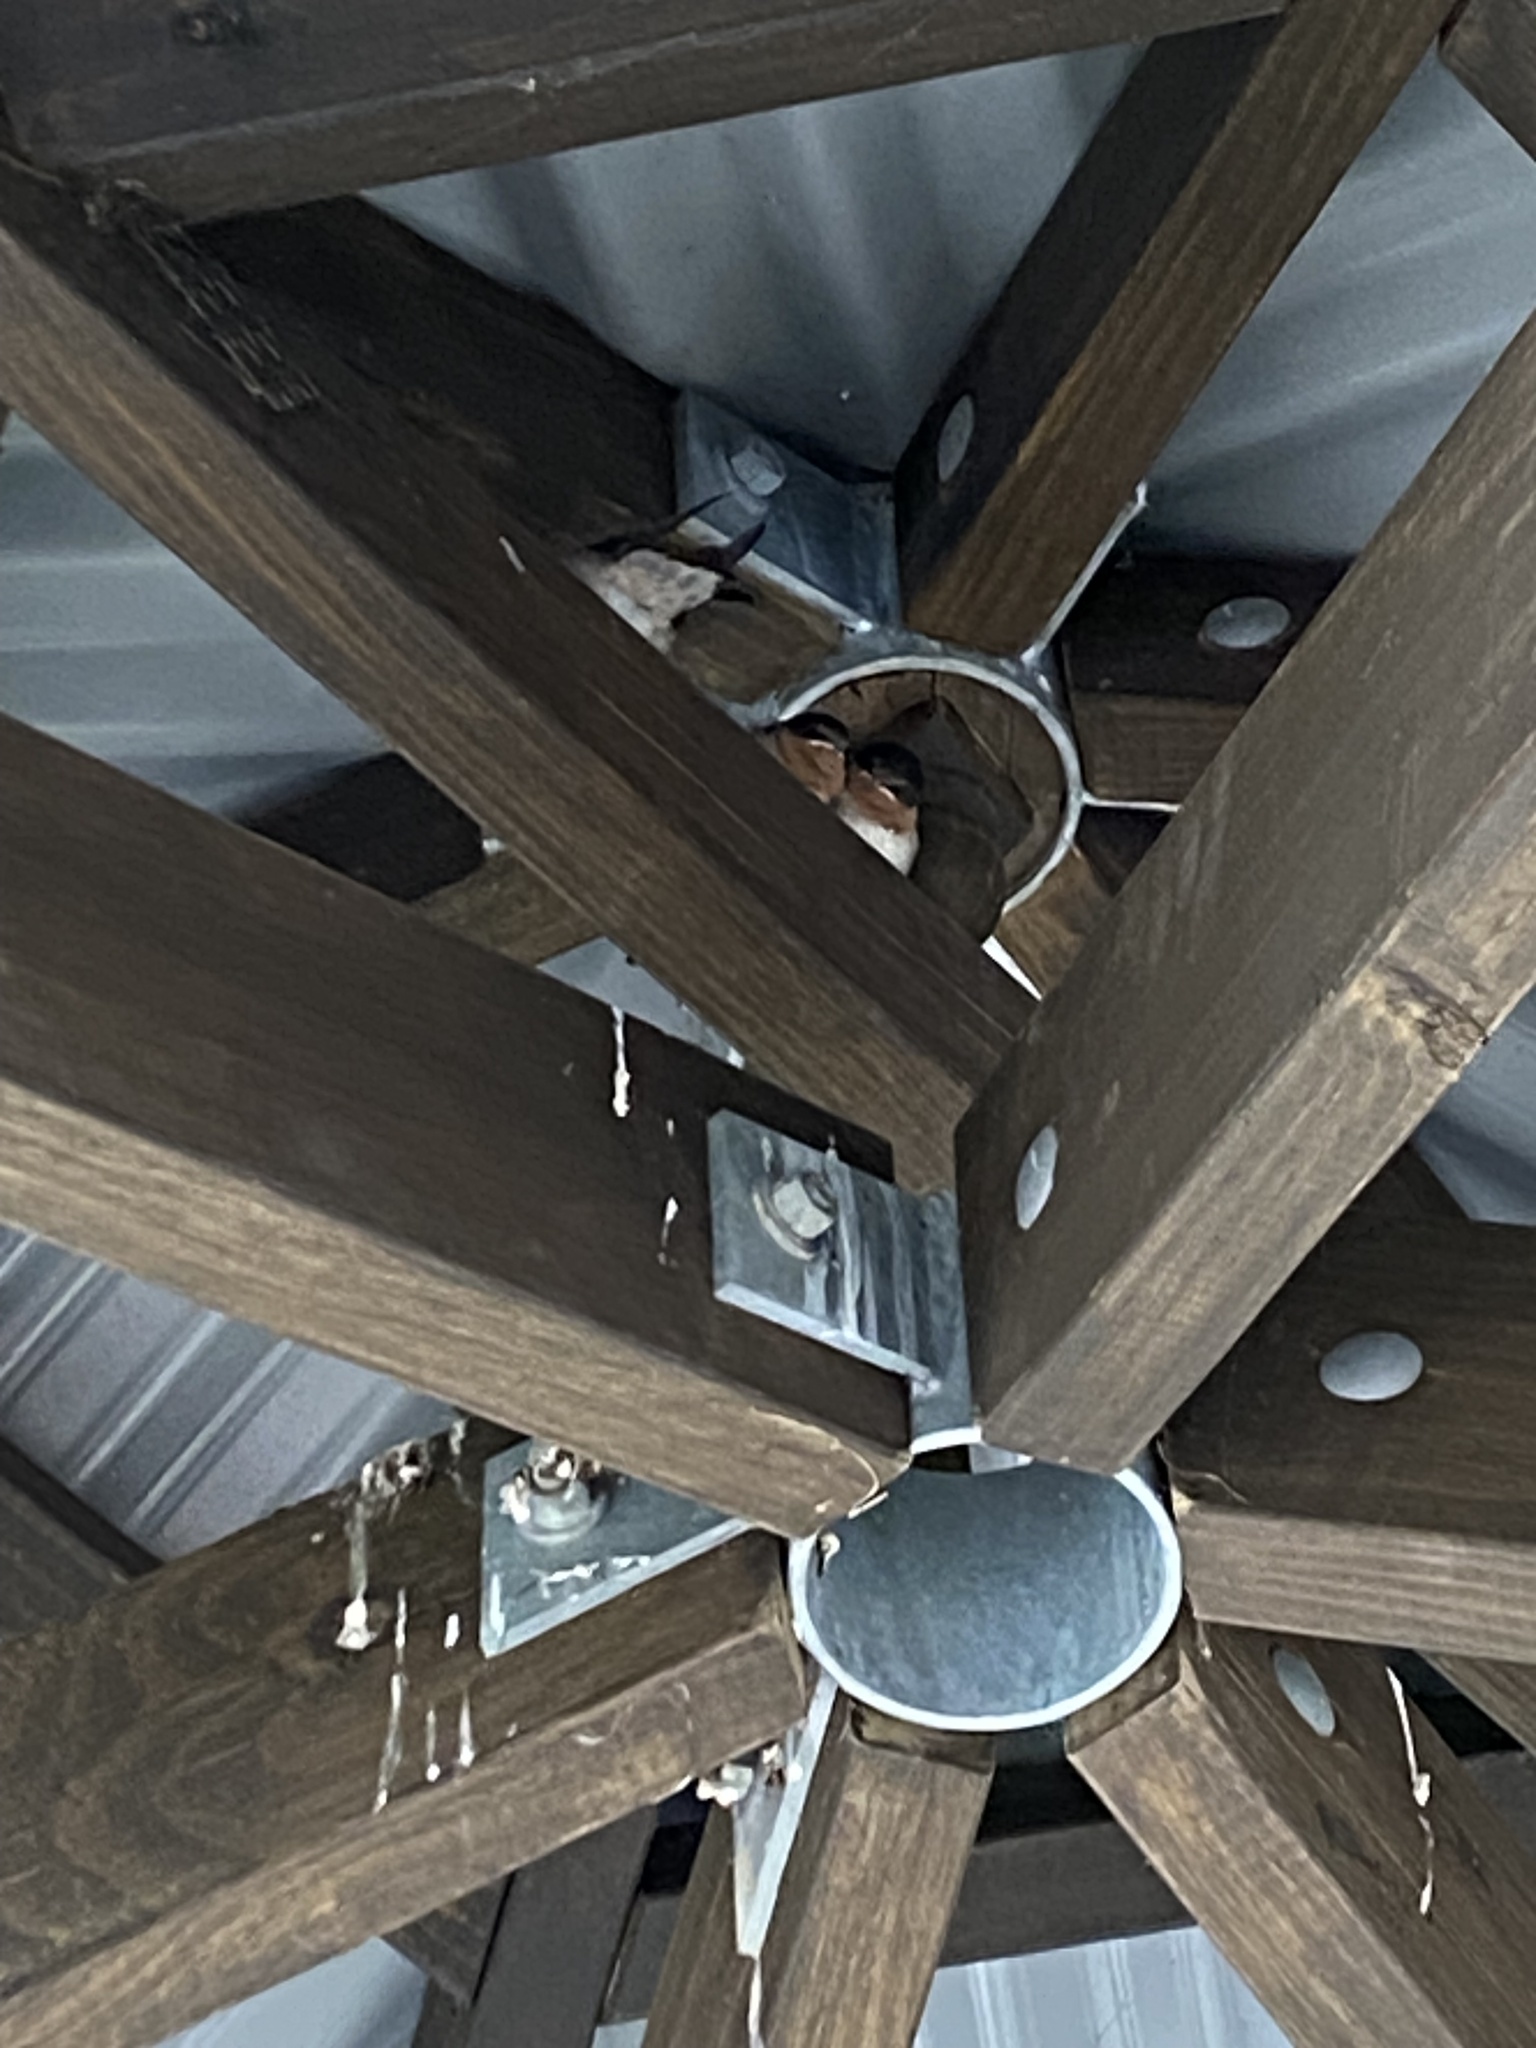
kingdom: Animalia
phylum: Chordata
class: Aves
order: Passeriformes
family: Hirundinidae
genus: Hirundo
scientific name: Hirundo neoxena
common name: Welcome swallow
